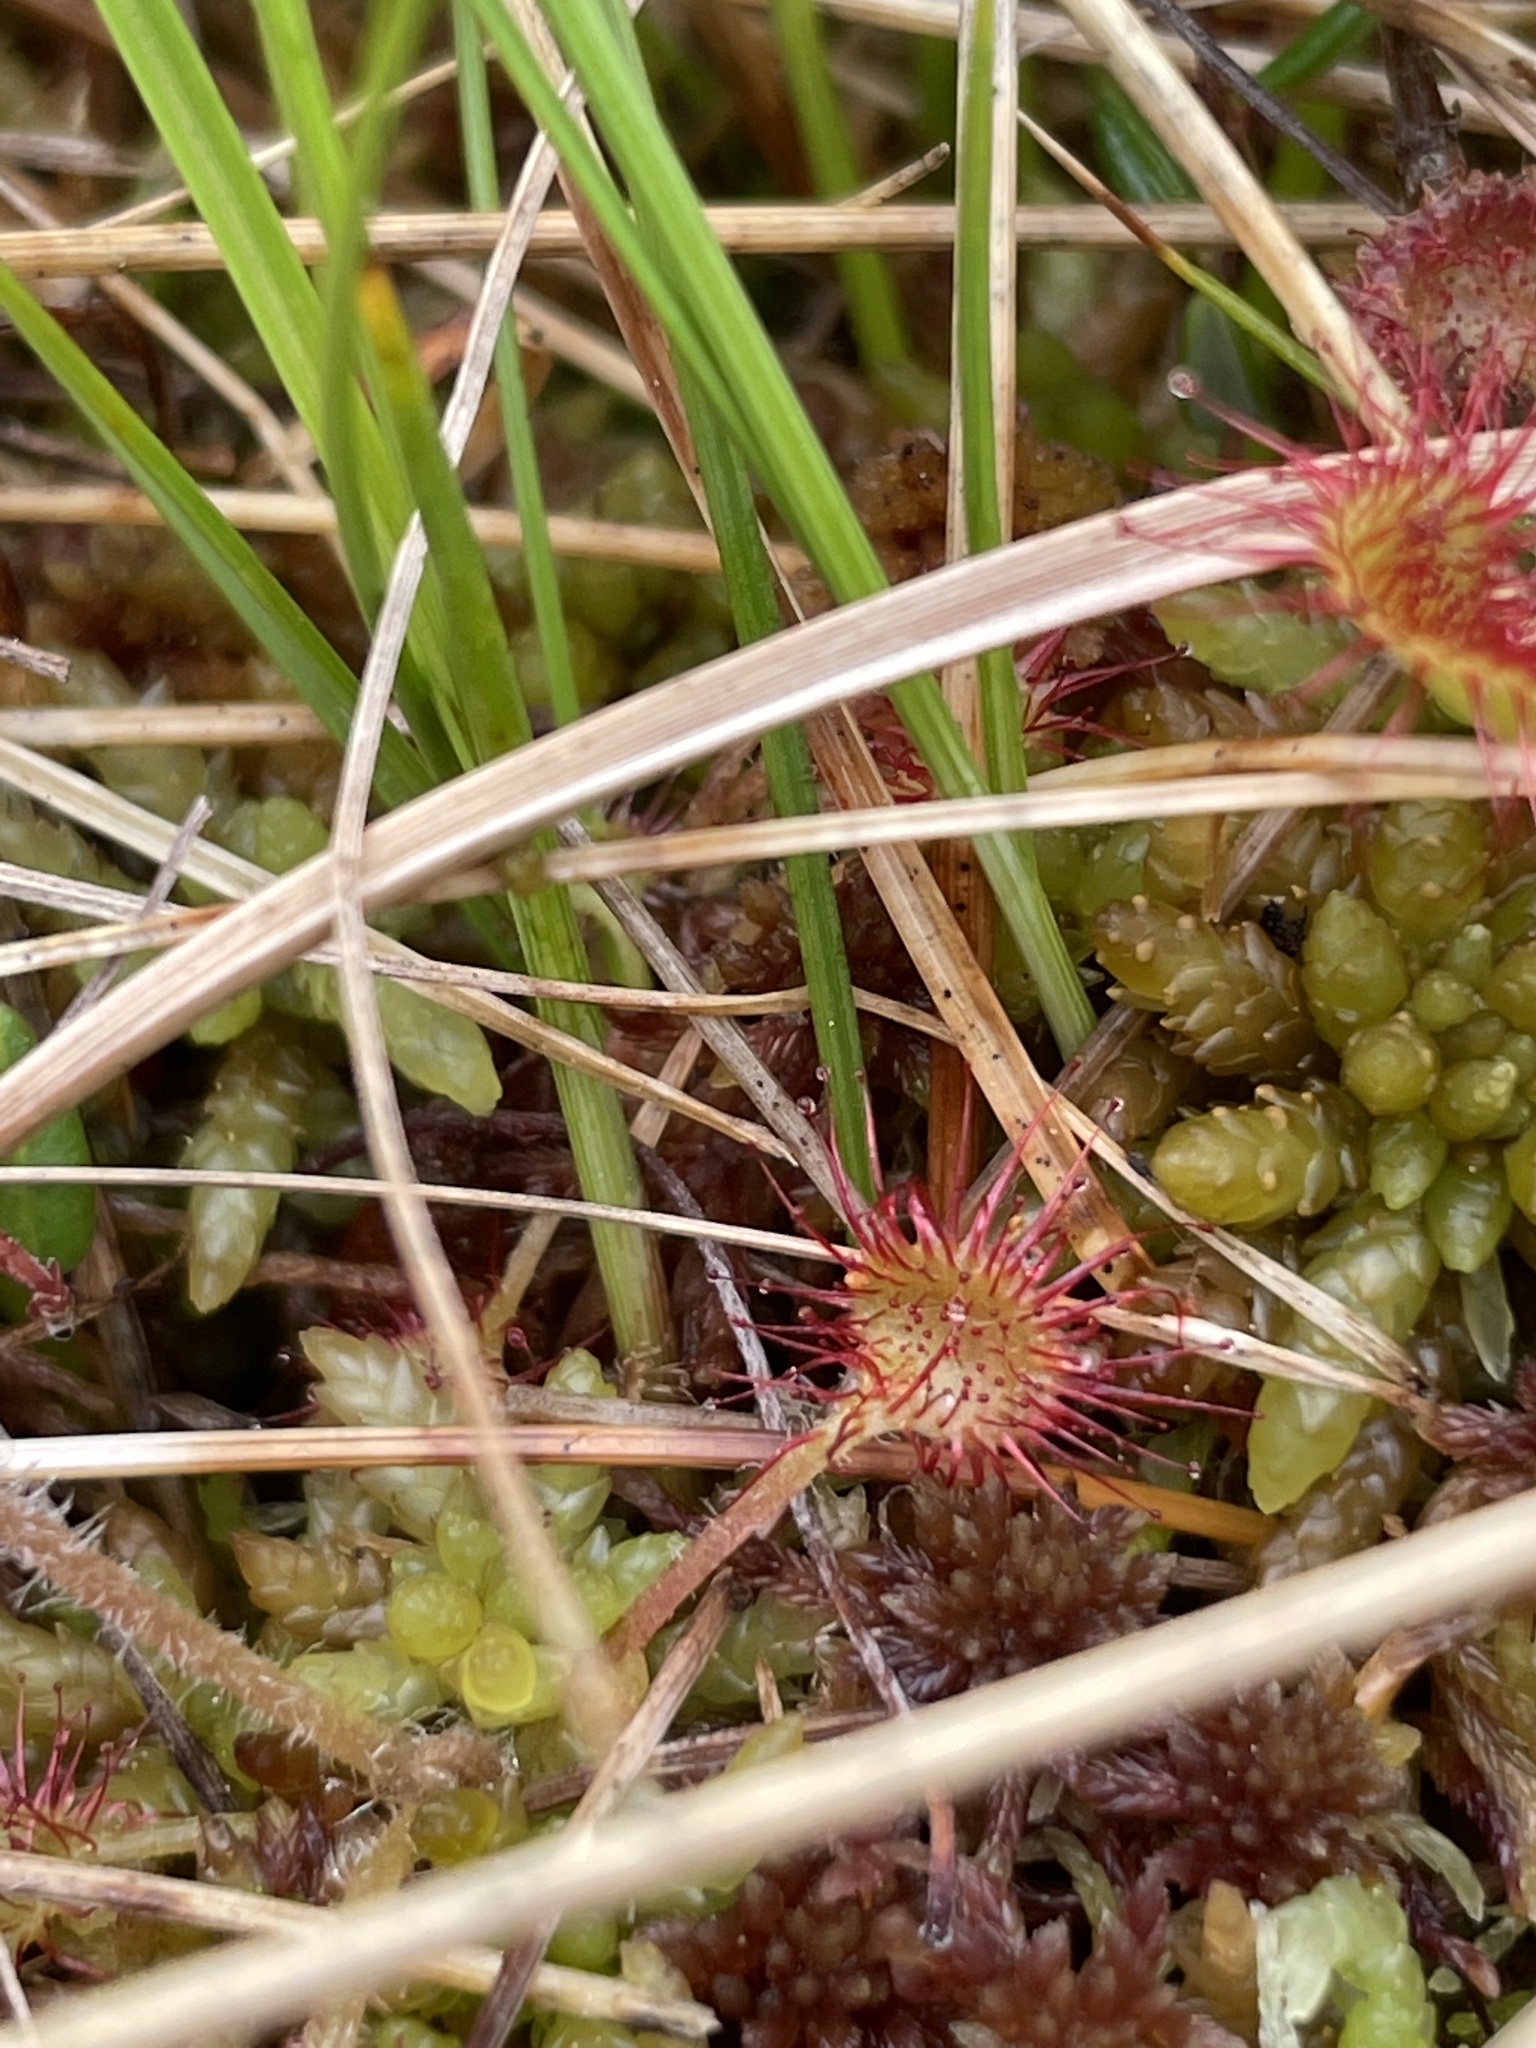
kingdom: Plantae
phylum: Tracheophyta
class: Magnoliopsida
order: Caryophyllales
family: Droseraceae
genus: Drosera
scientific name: Drosera rotundifolia
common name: Round-leaved sundew
